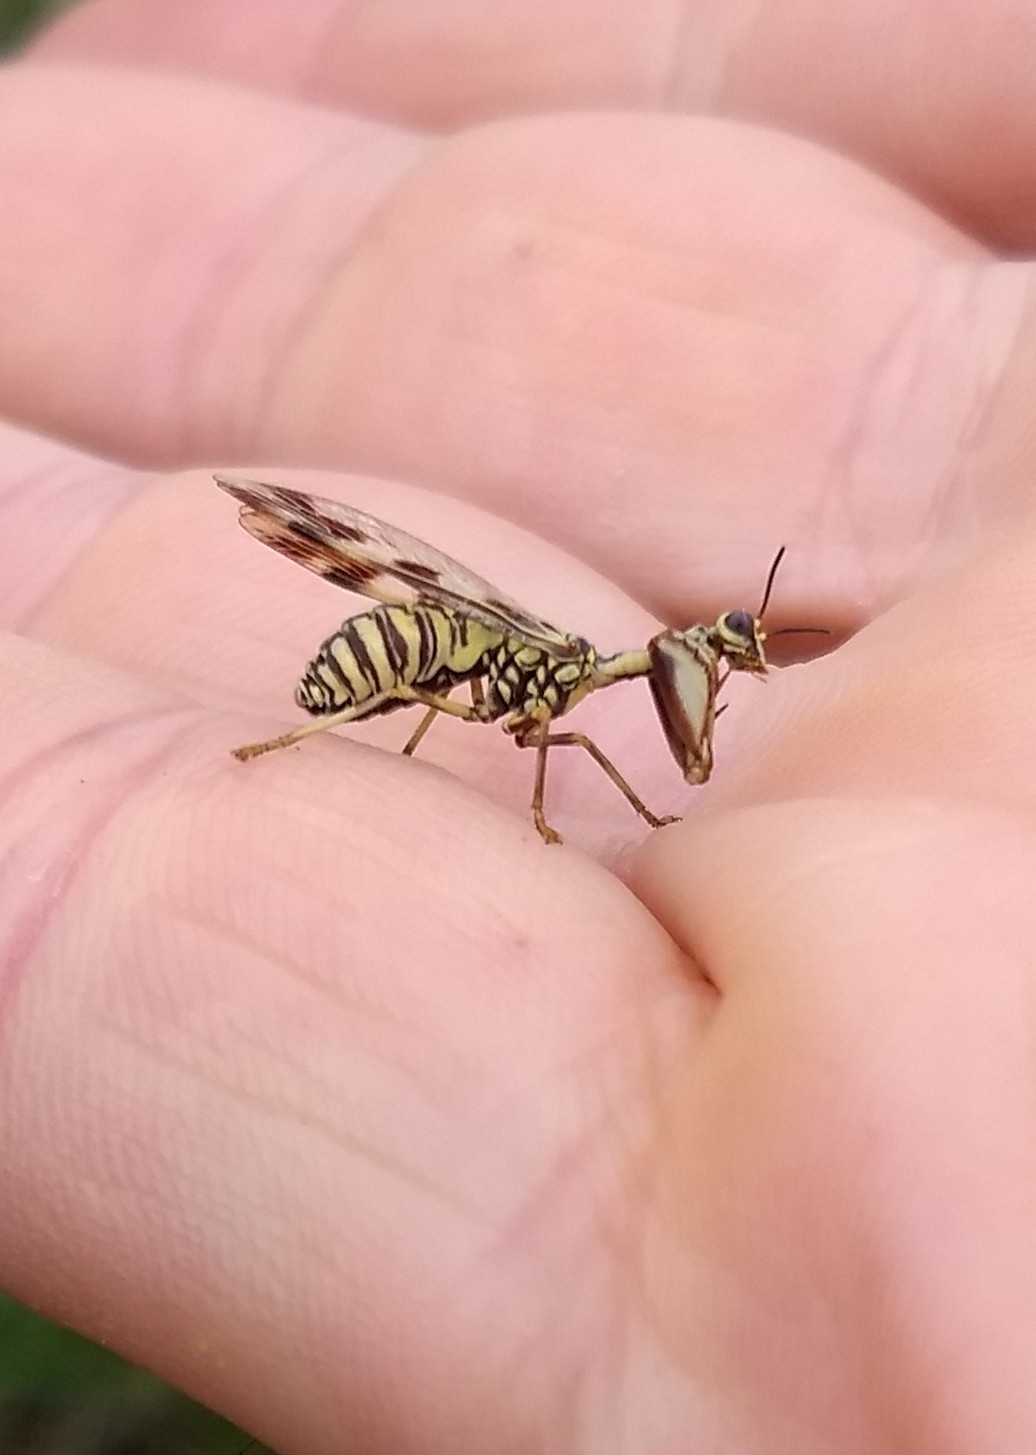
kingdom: Animalia
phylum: Arthropoda
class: Insecta
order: Neuroptera
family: Mantispidae
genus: Paramantispa
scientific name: Paramantispa ambusta
